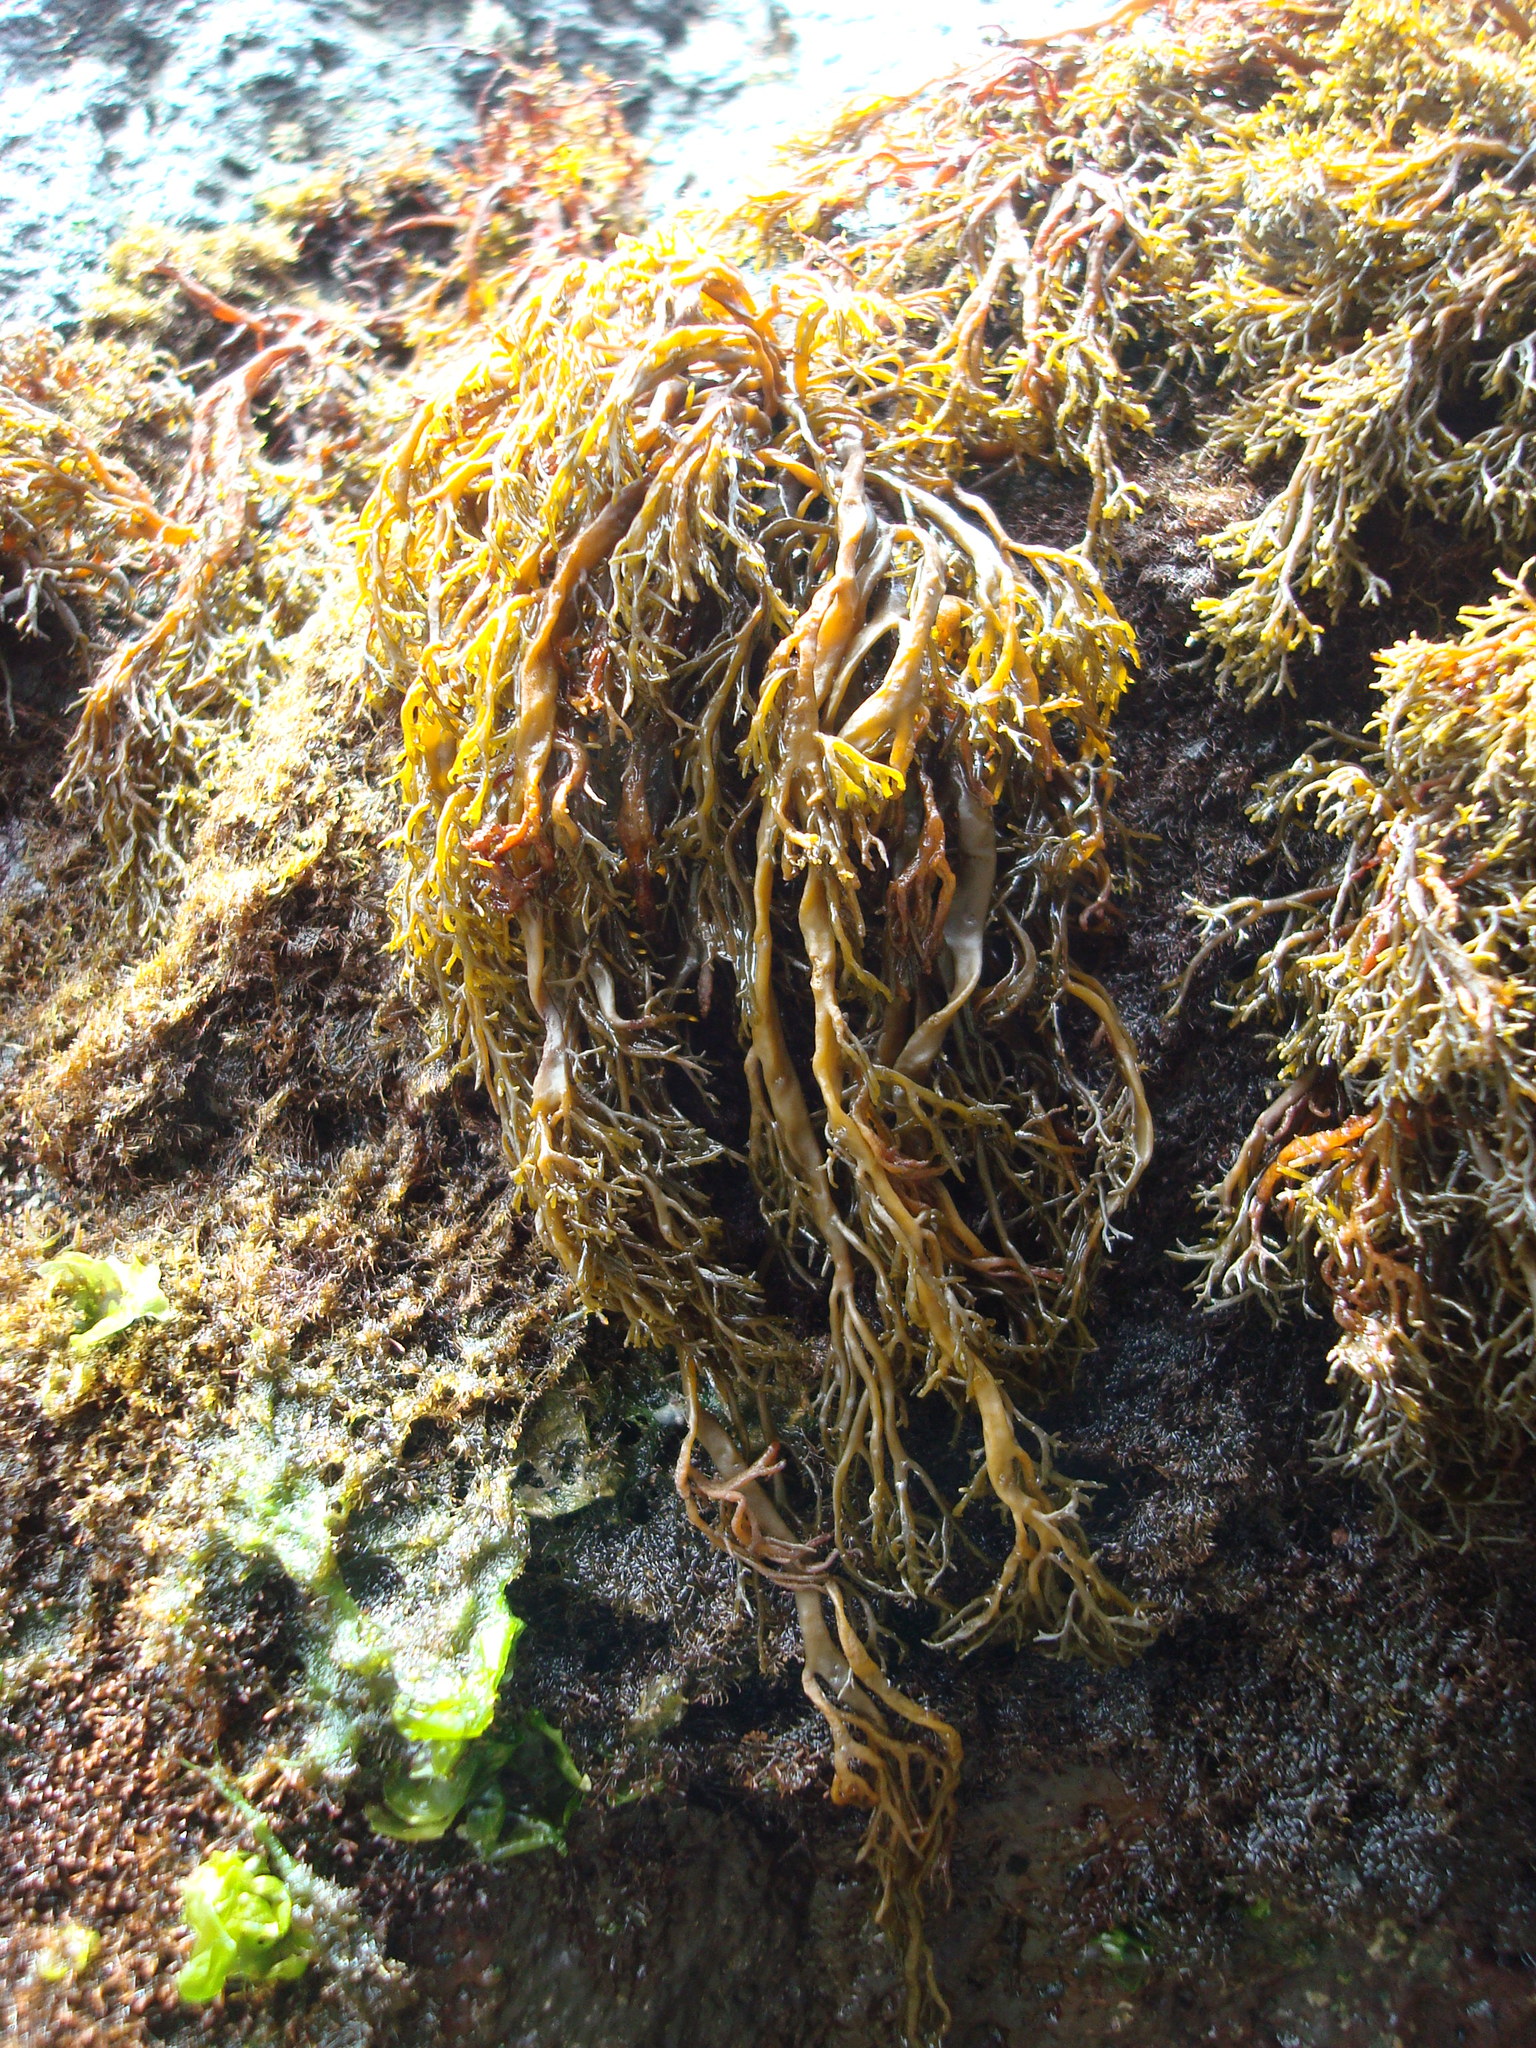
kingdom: Chromista
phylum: Ochrophyta
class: Phaeophyceae
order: Scytothamnales
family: Scytothamnaceae
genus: Scytothamnus
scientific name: Scytothamnus australis
